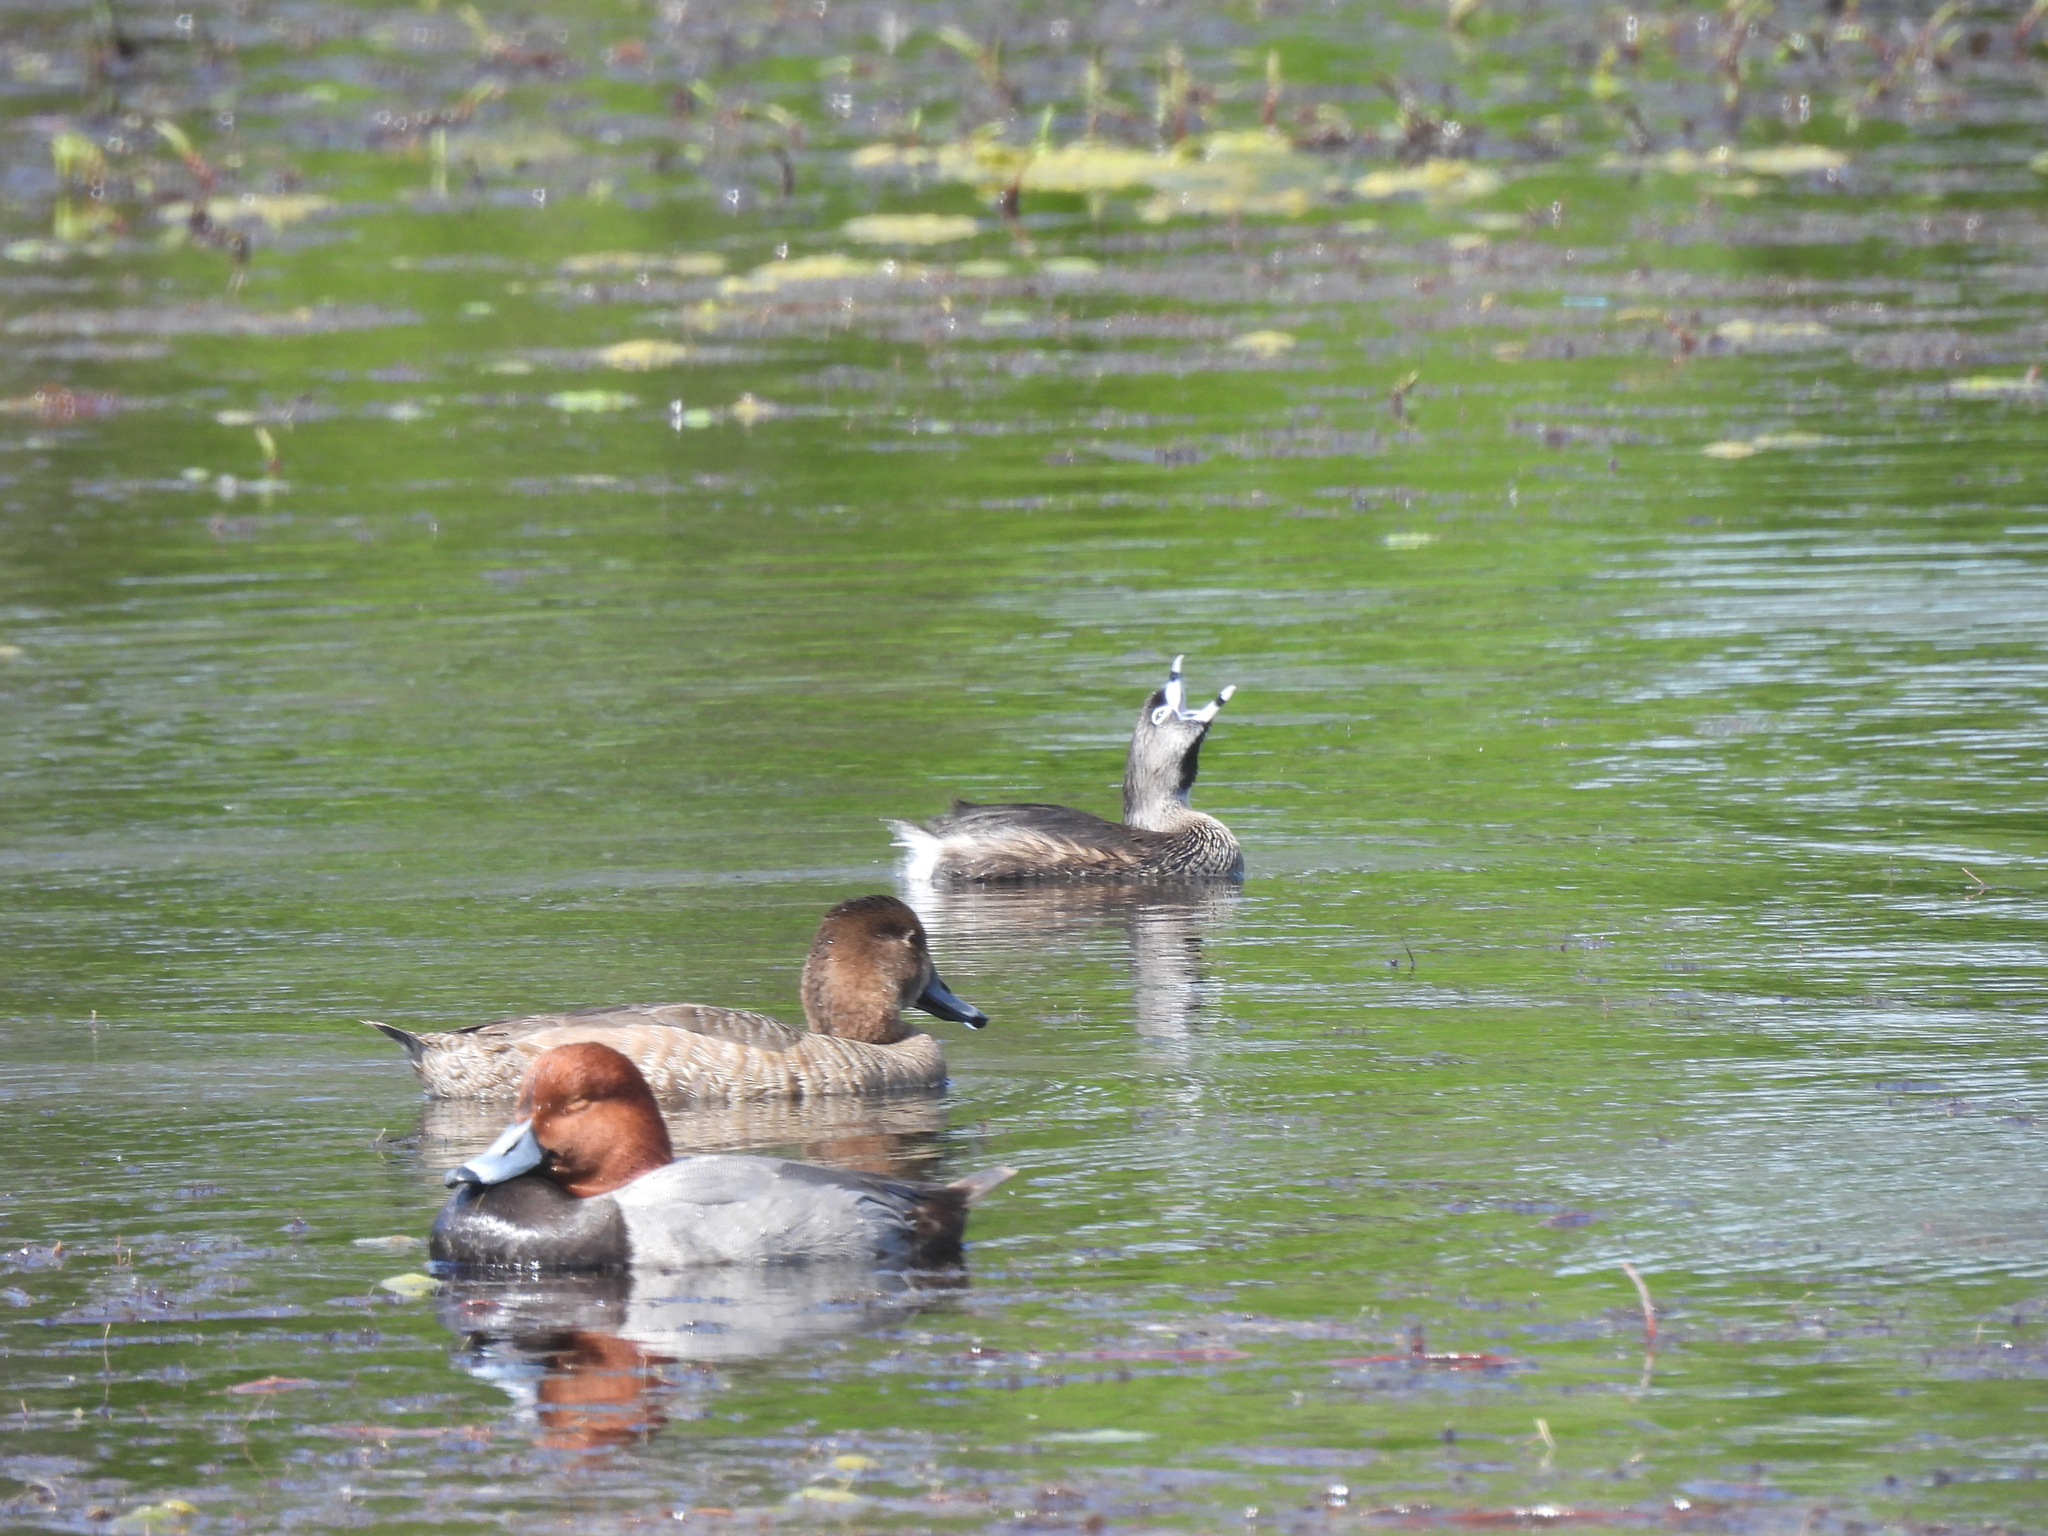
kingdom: Animalia
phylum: Chordata
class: Aves
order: Podicipediformes
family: Podicipedidae
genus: Podilymbus
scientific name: Podilymbus podiceps
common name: Pied-billed grebe
